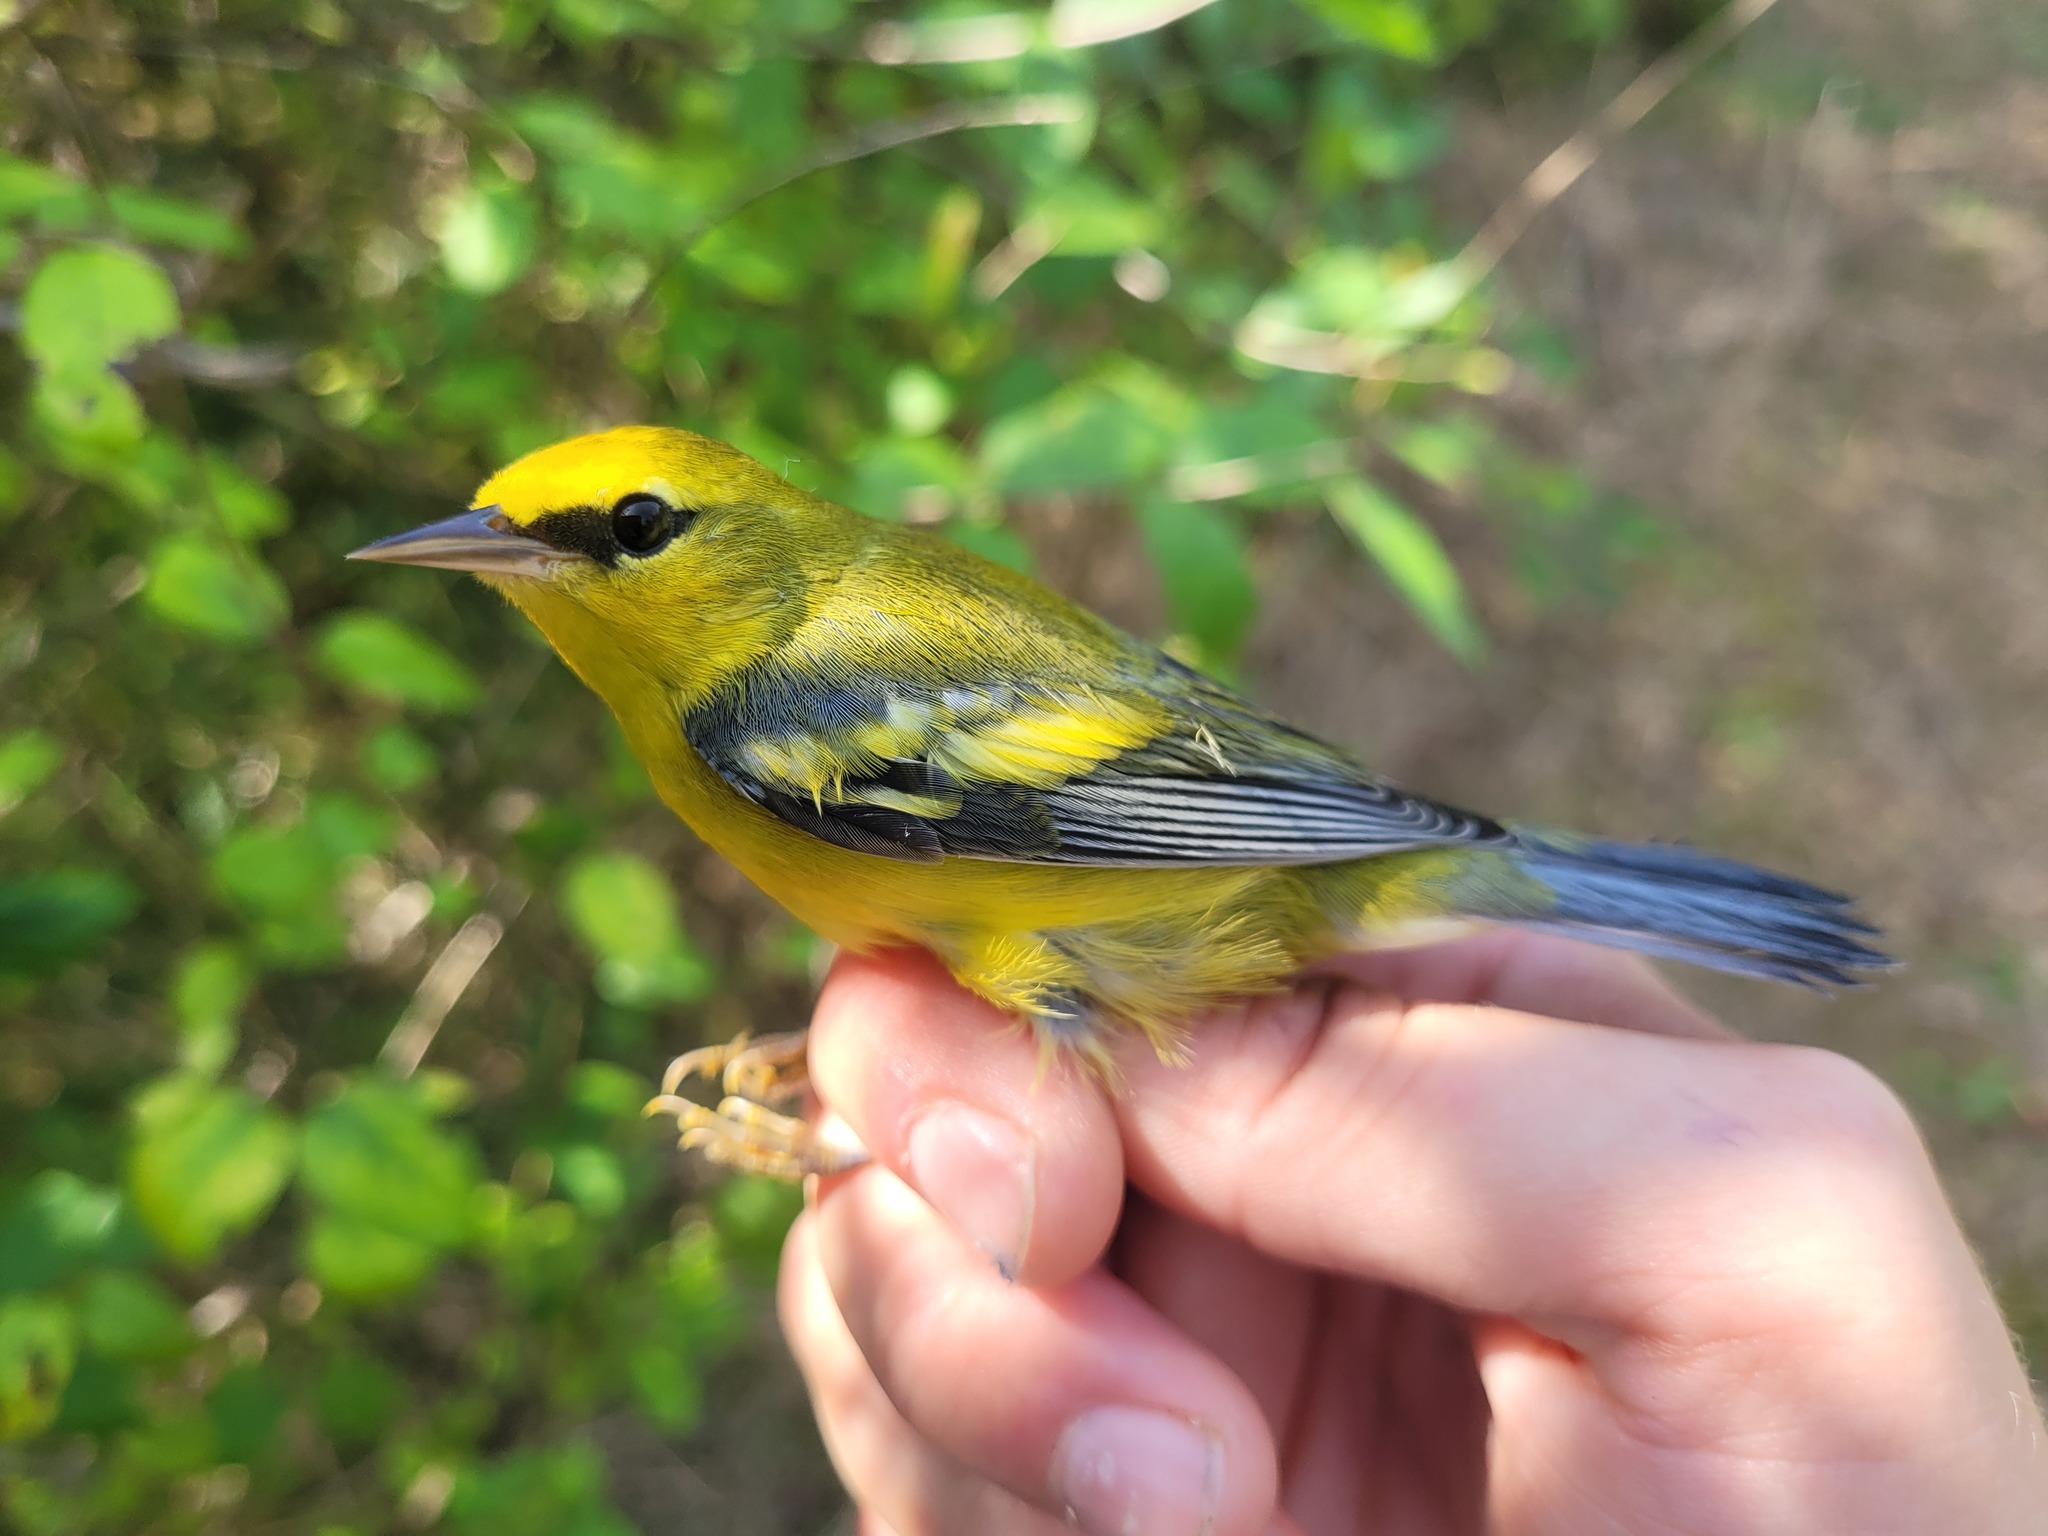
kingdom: Animalia
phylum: Chordata
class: Aves
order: Passeriformes
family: Parulidae
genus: Vermivora
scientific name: Vermivora
